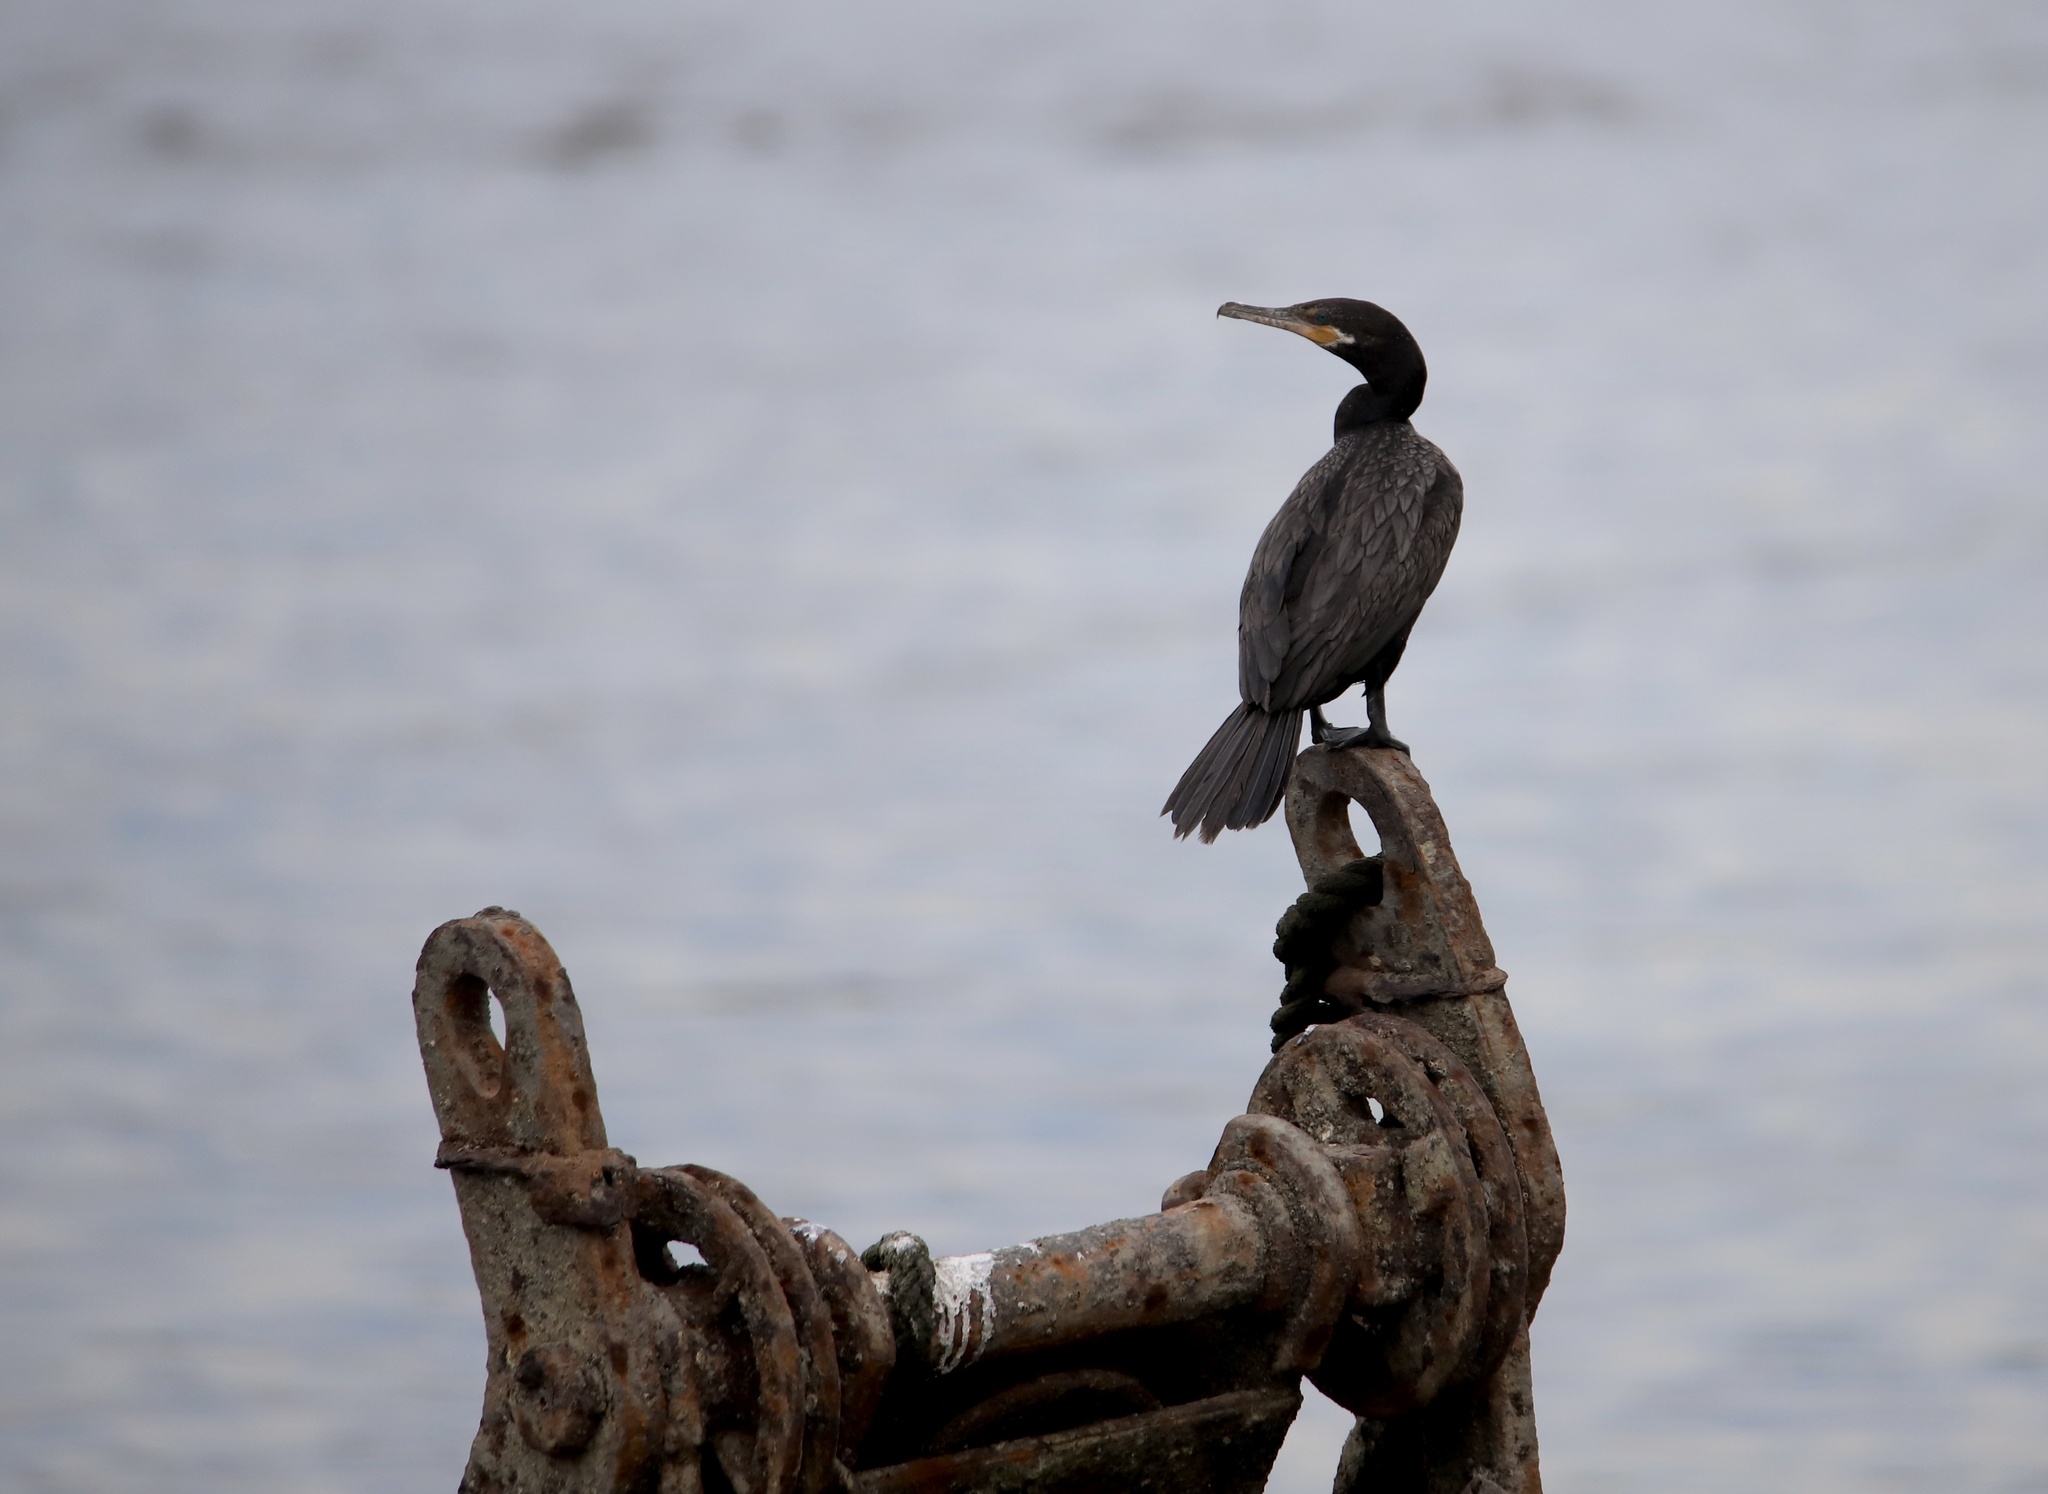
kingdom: Animalia
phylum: Chordata
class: Aves
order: Suliformes
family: Phalacrocoracidae
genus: Phalacrocorax
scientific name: Phalacrocorax brasilianus
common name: Neotropic cormorant
